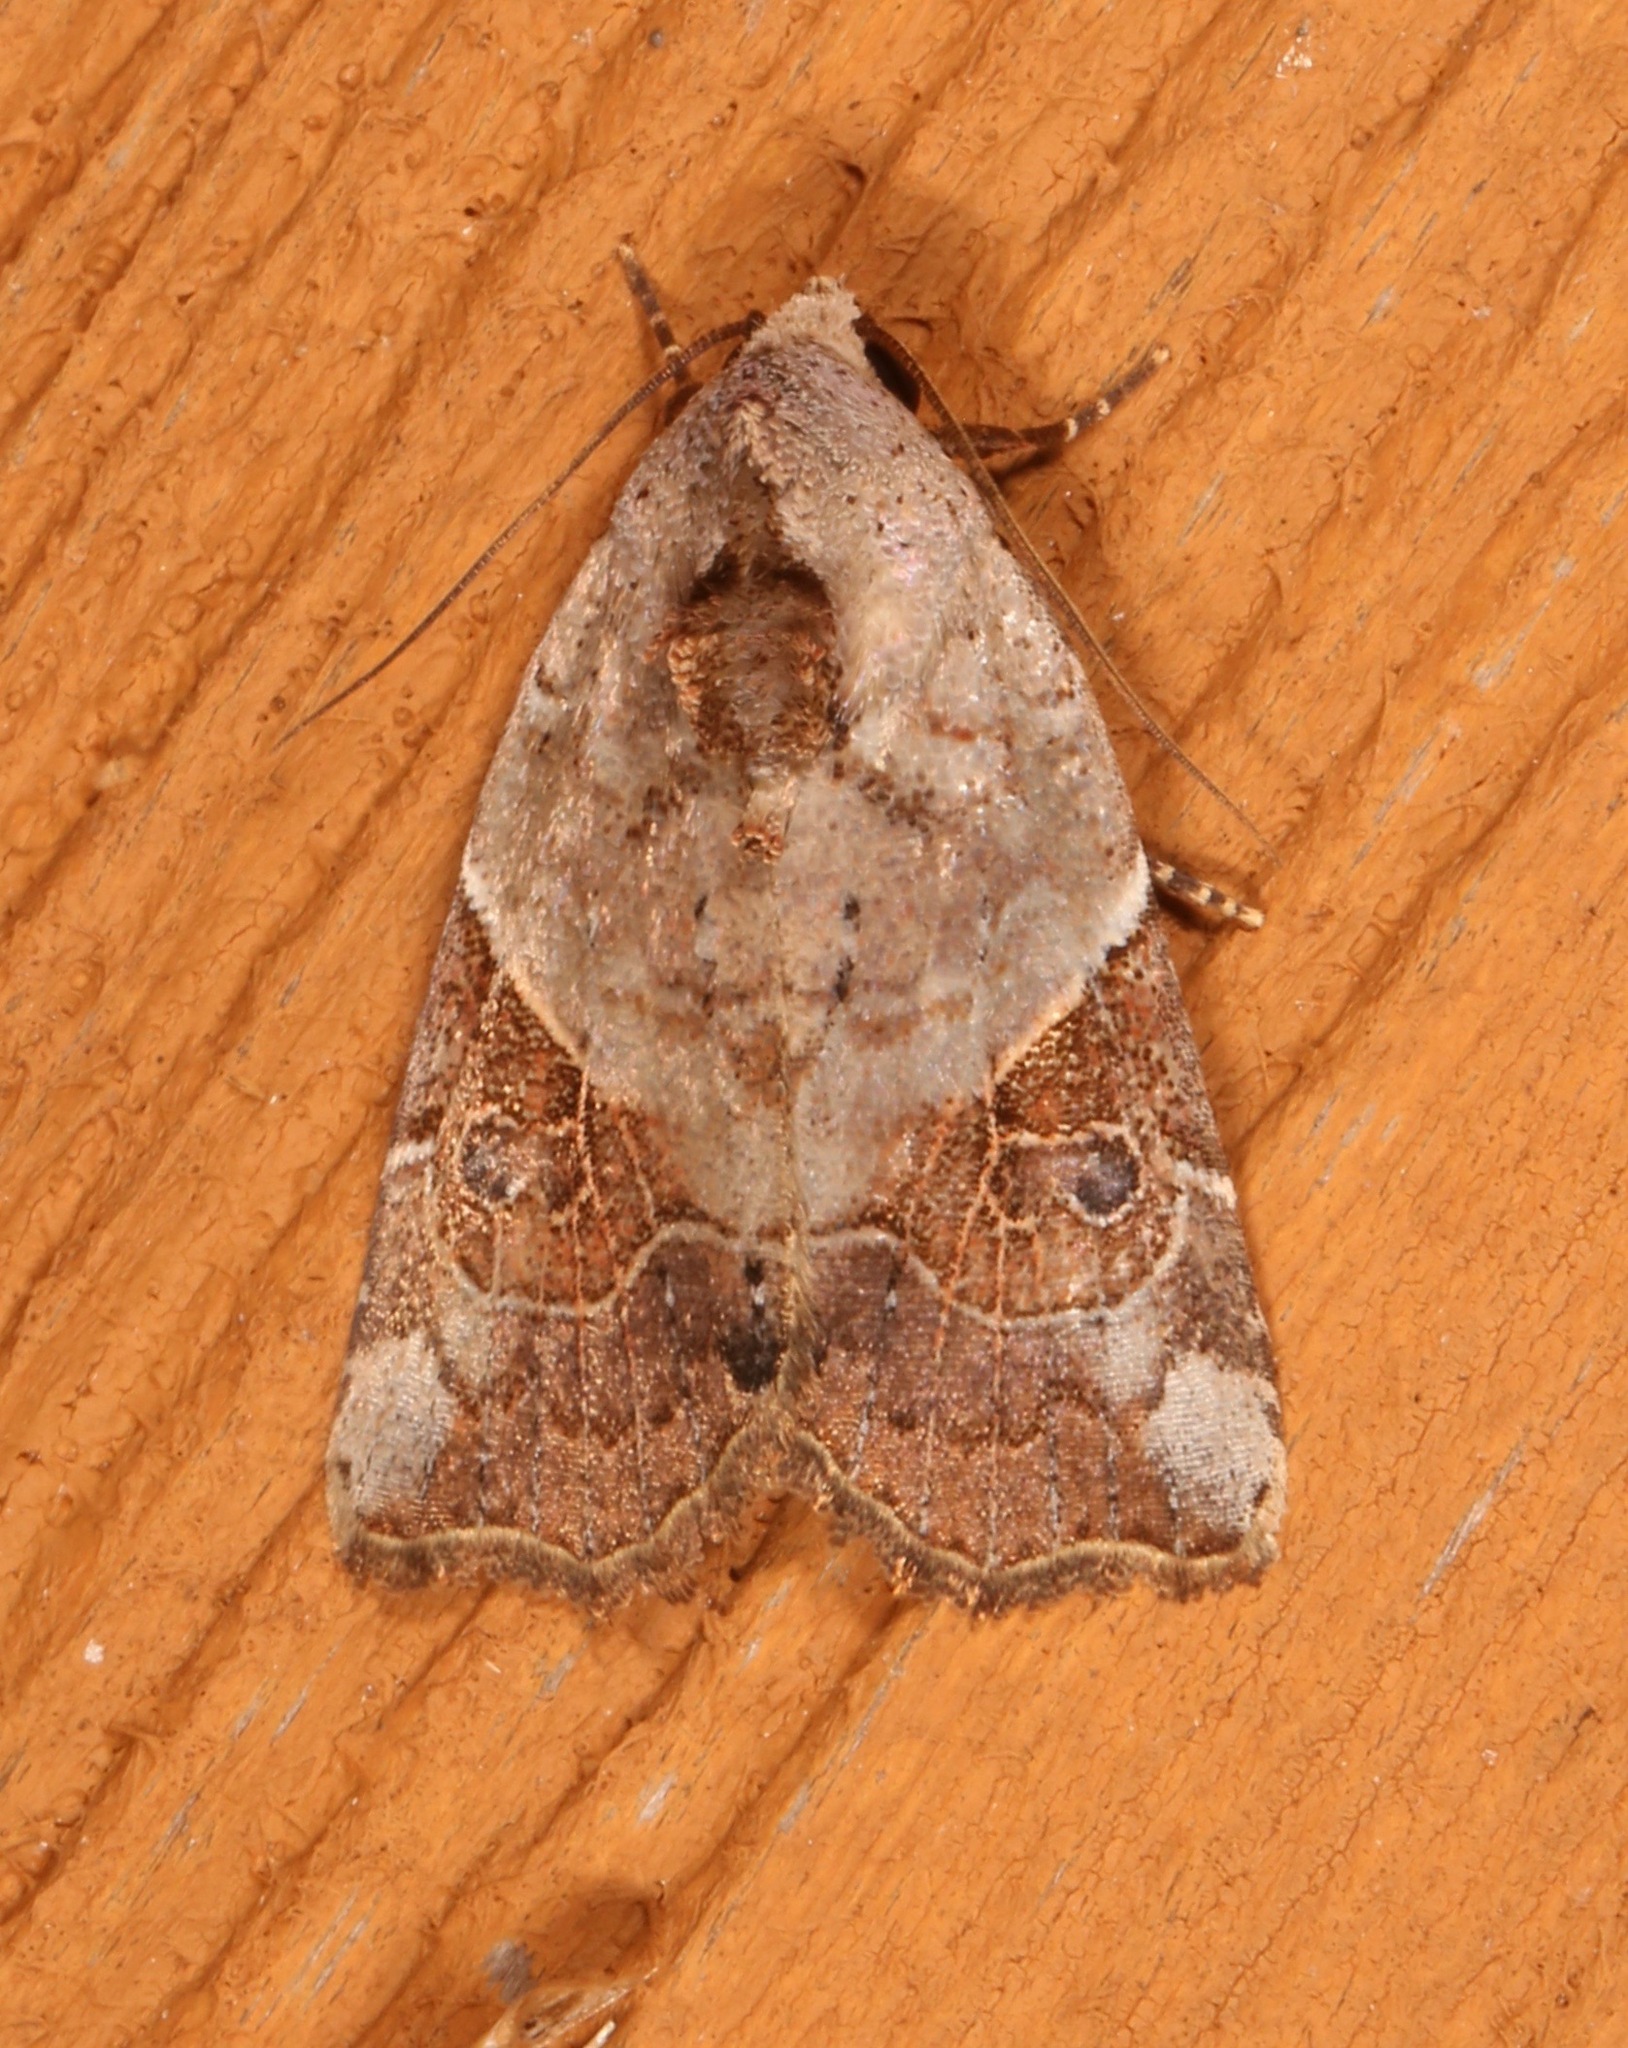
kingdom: Animalia
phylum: Arthropoda
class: Insecta
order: Lepidoptera
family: Noctuidae
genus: Gonodes
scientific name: Gonodes liquida
